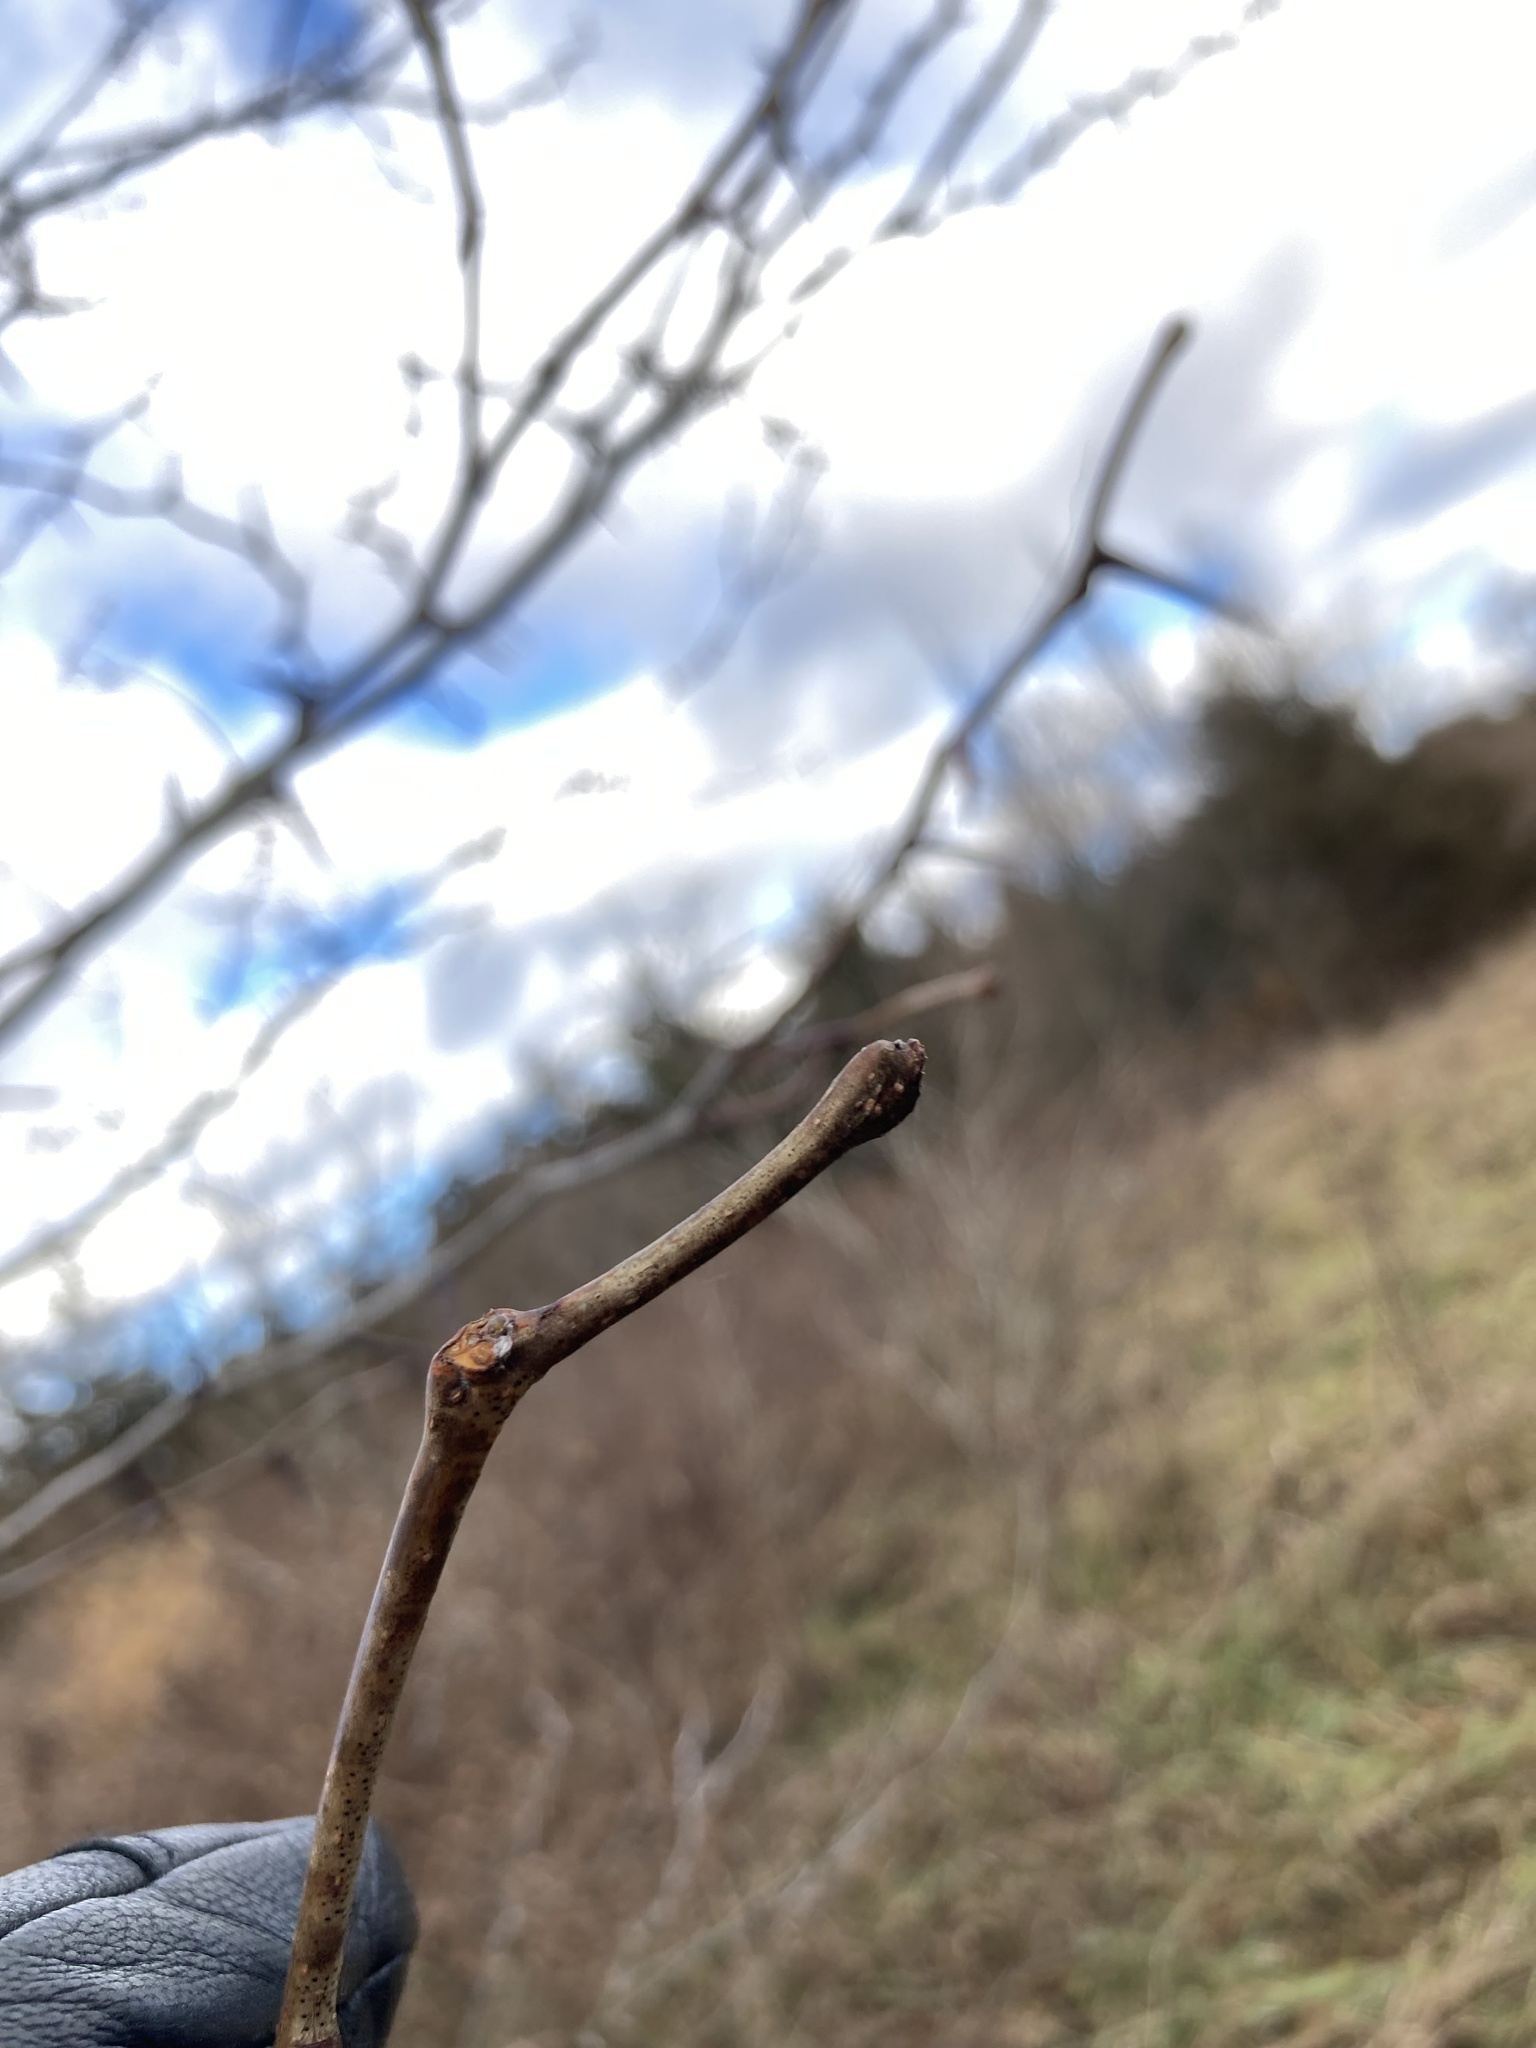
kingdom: Plantae
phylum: Tracheophyta
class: Magnoliopsida
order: Fabales
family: Fabaceae
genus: Gleditsia
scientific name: Gleditsia triacanthos
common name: Common honeylocust
